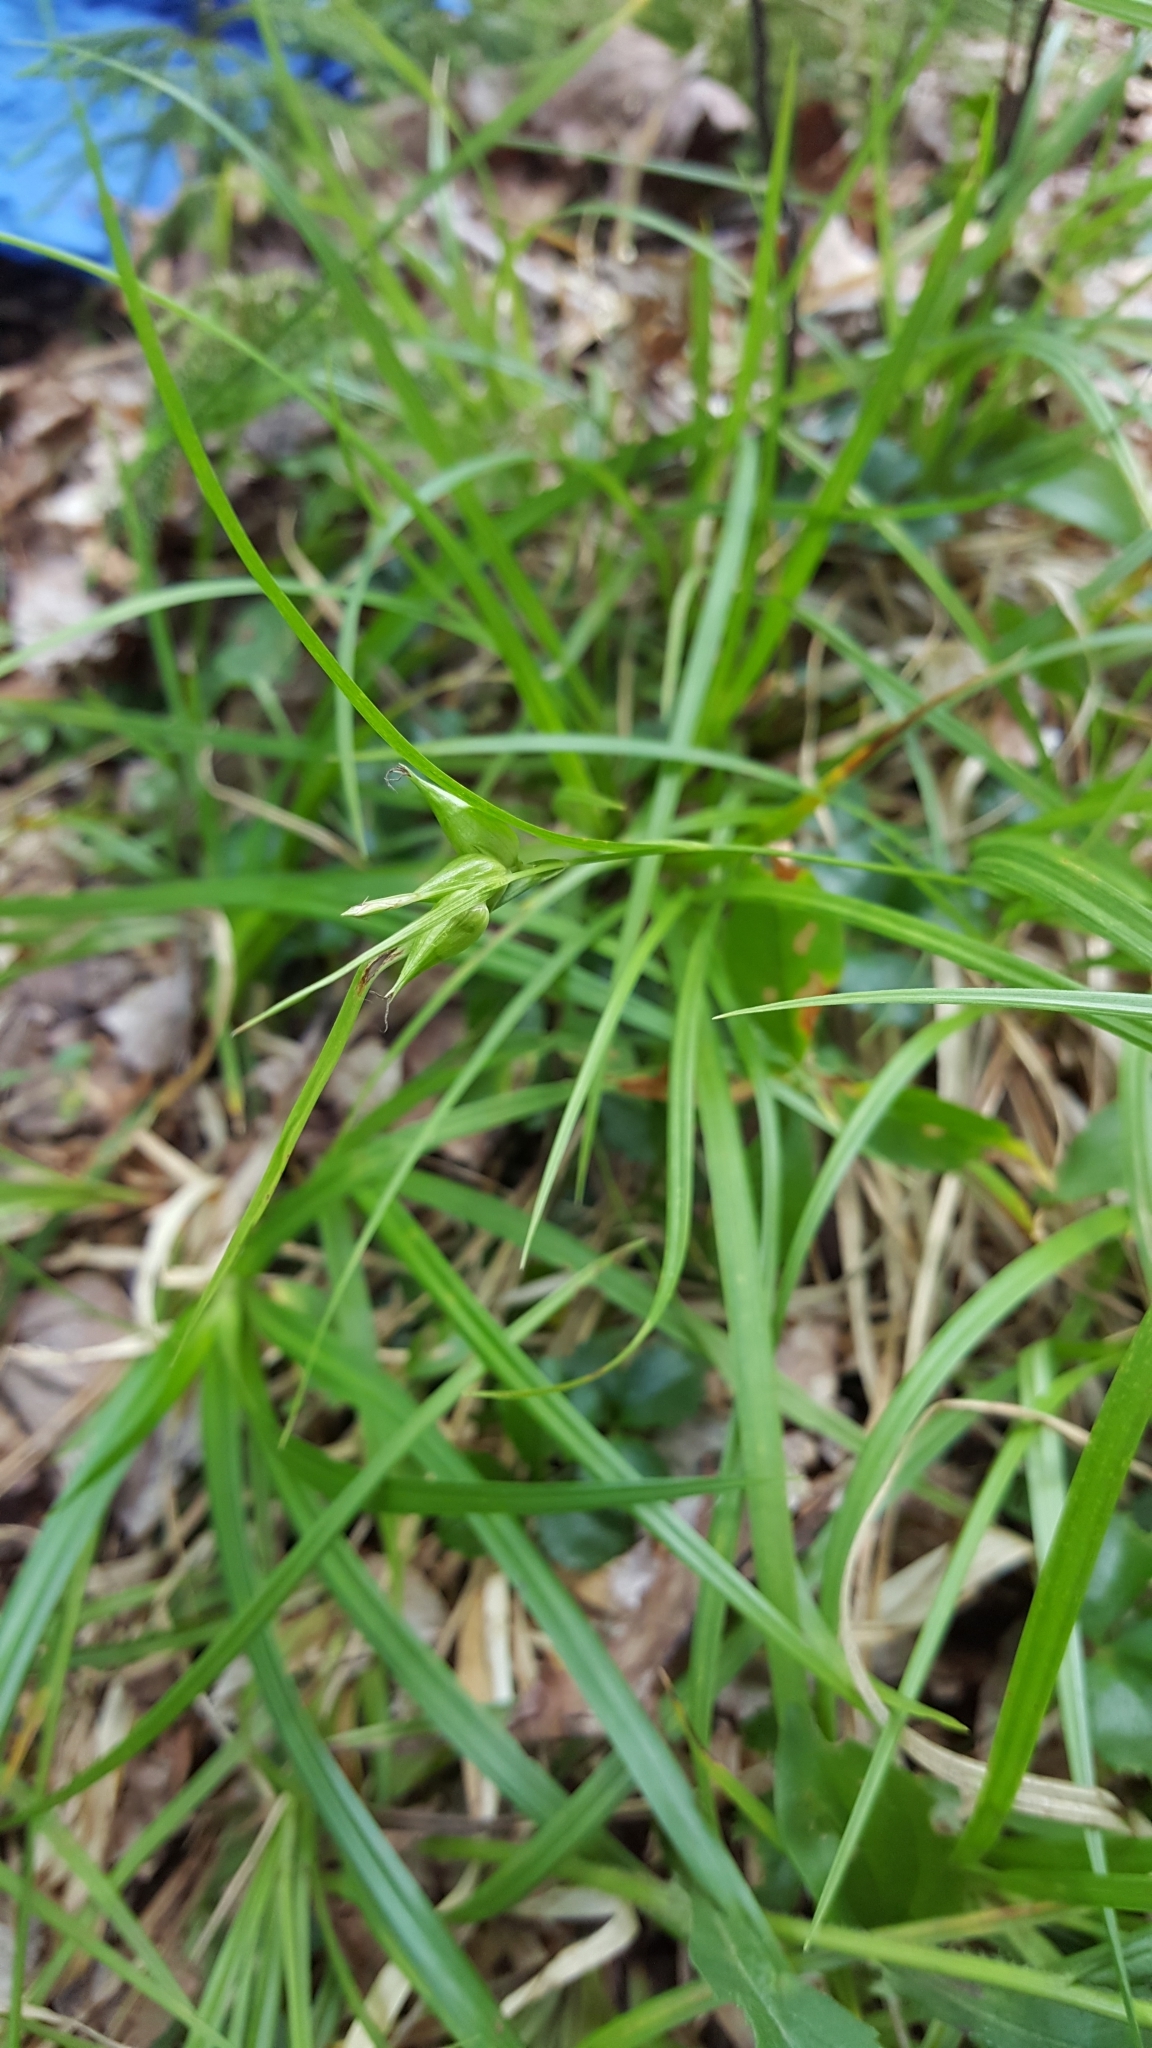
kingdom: Plantae
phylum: Tracheophyta
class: Liliopsida
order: Poales
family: Cyperaceae
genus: Carex
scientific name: Carex intumescens
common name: Greater bladder sedge
